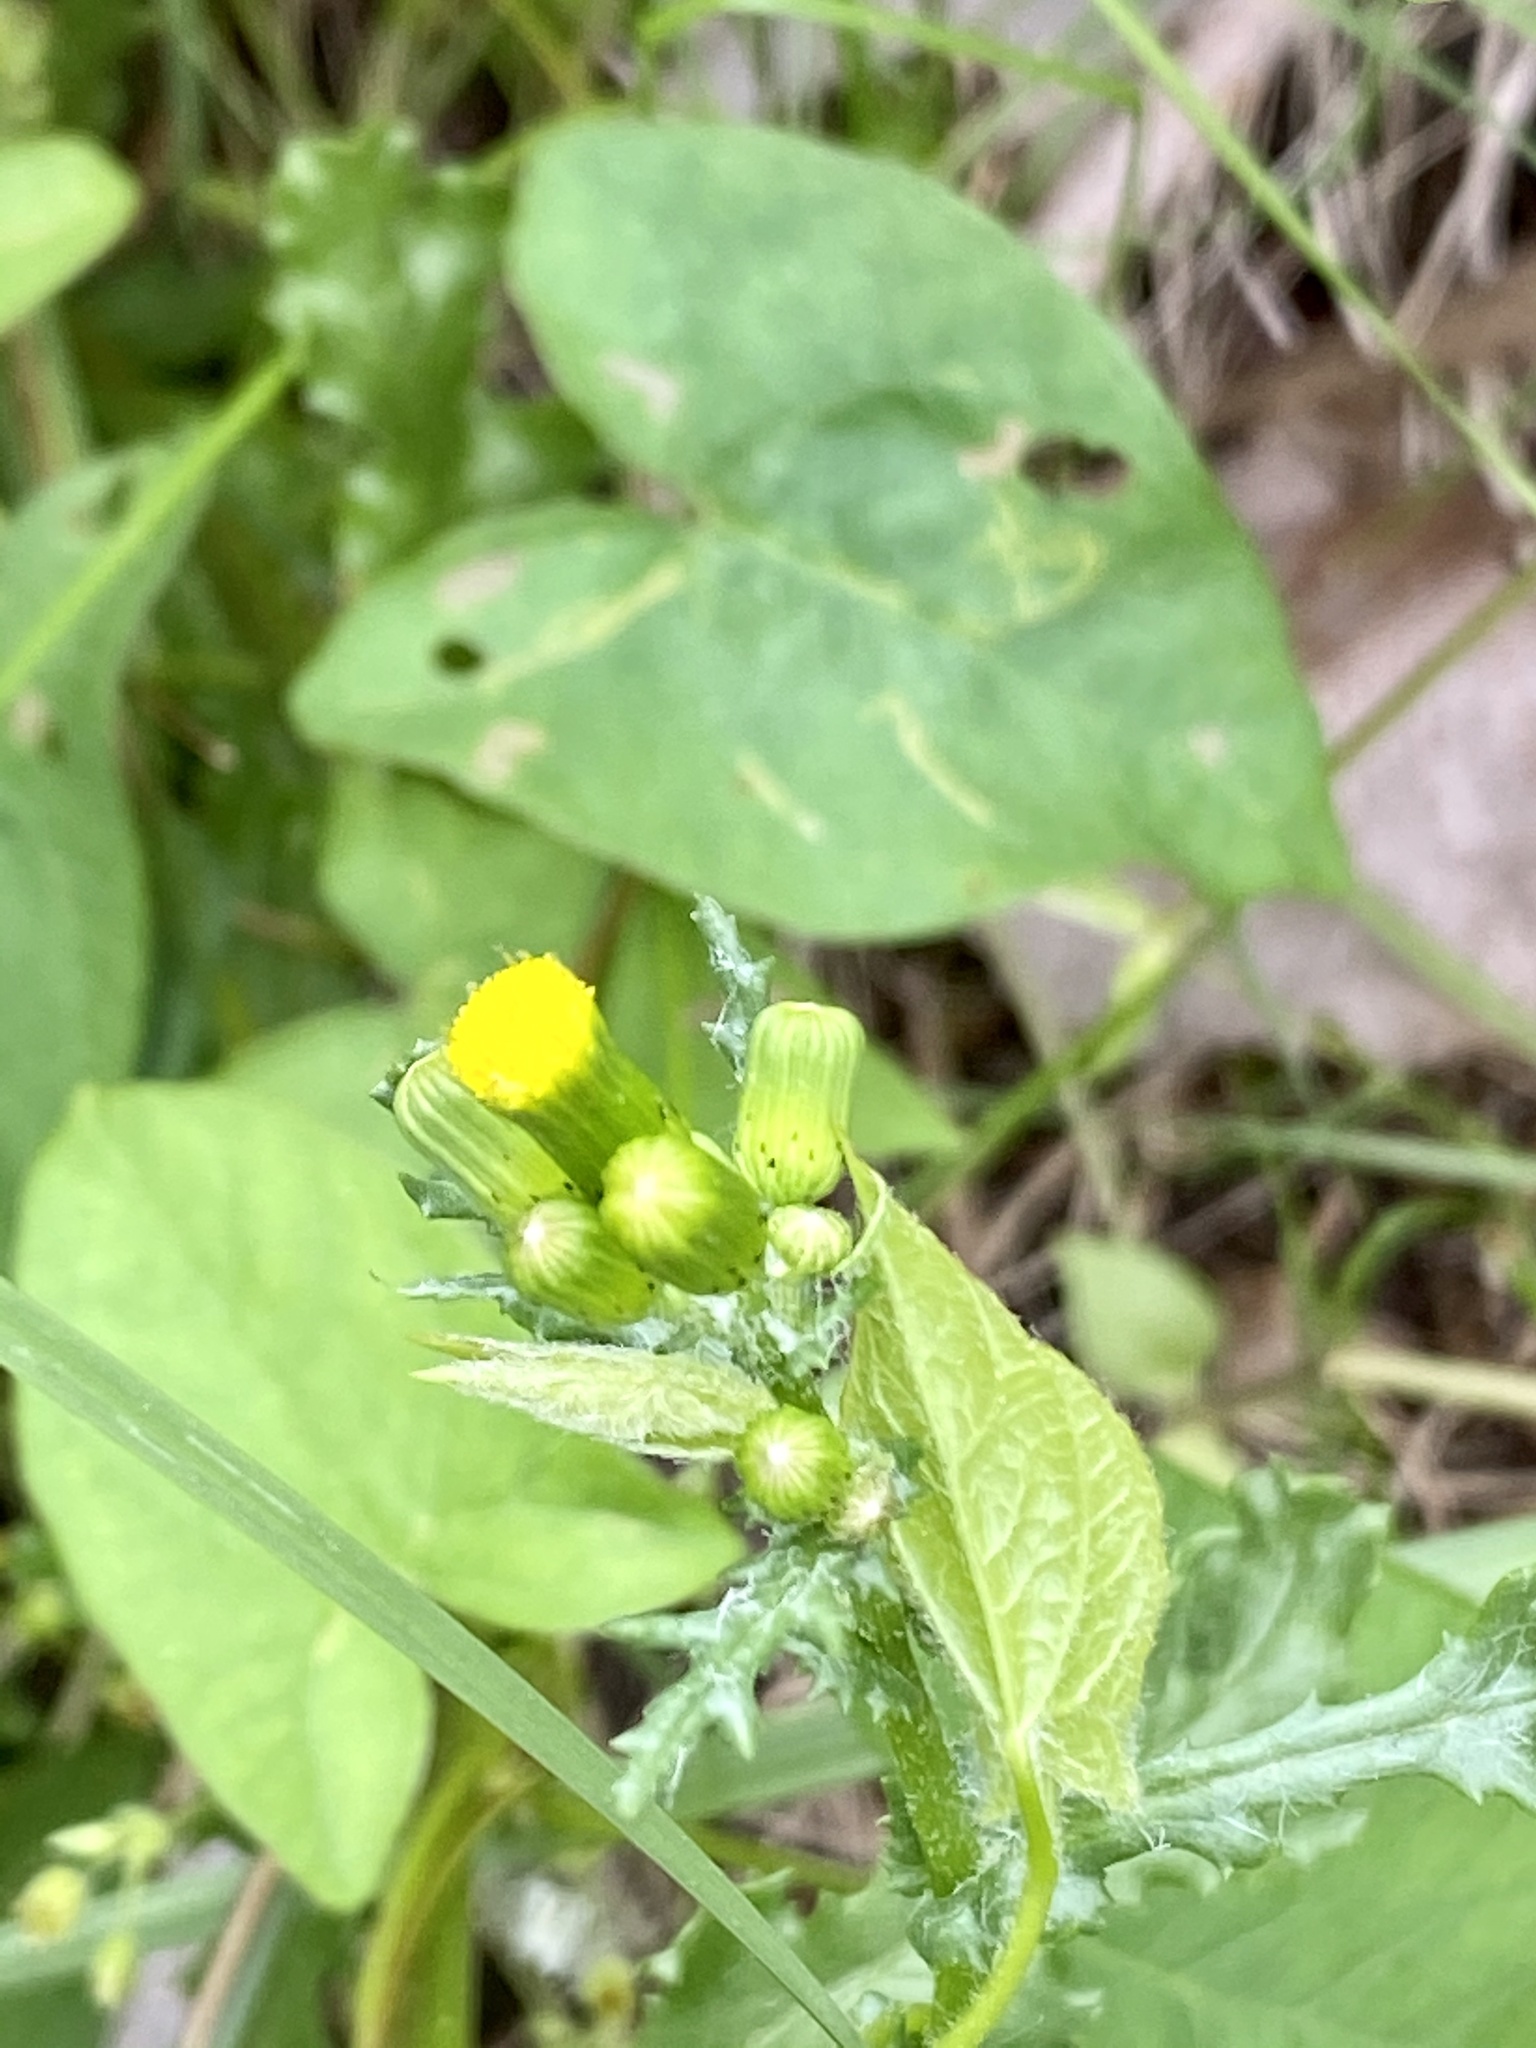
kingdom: Plantae
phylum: Tracheophyta
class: Magnoliopsida
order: Asterales
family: Asteraceae
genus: Senecio
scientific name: Senecio vulgaris
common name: Old-man-in-the-spring
